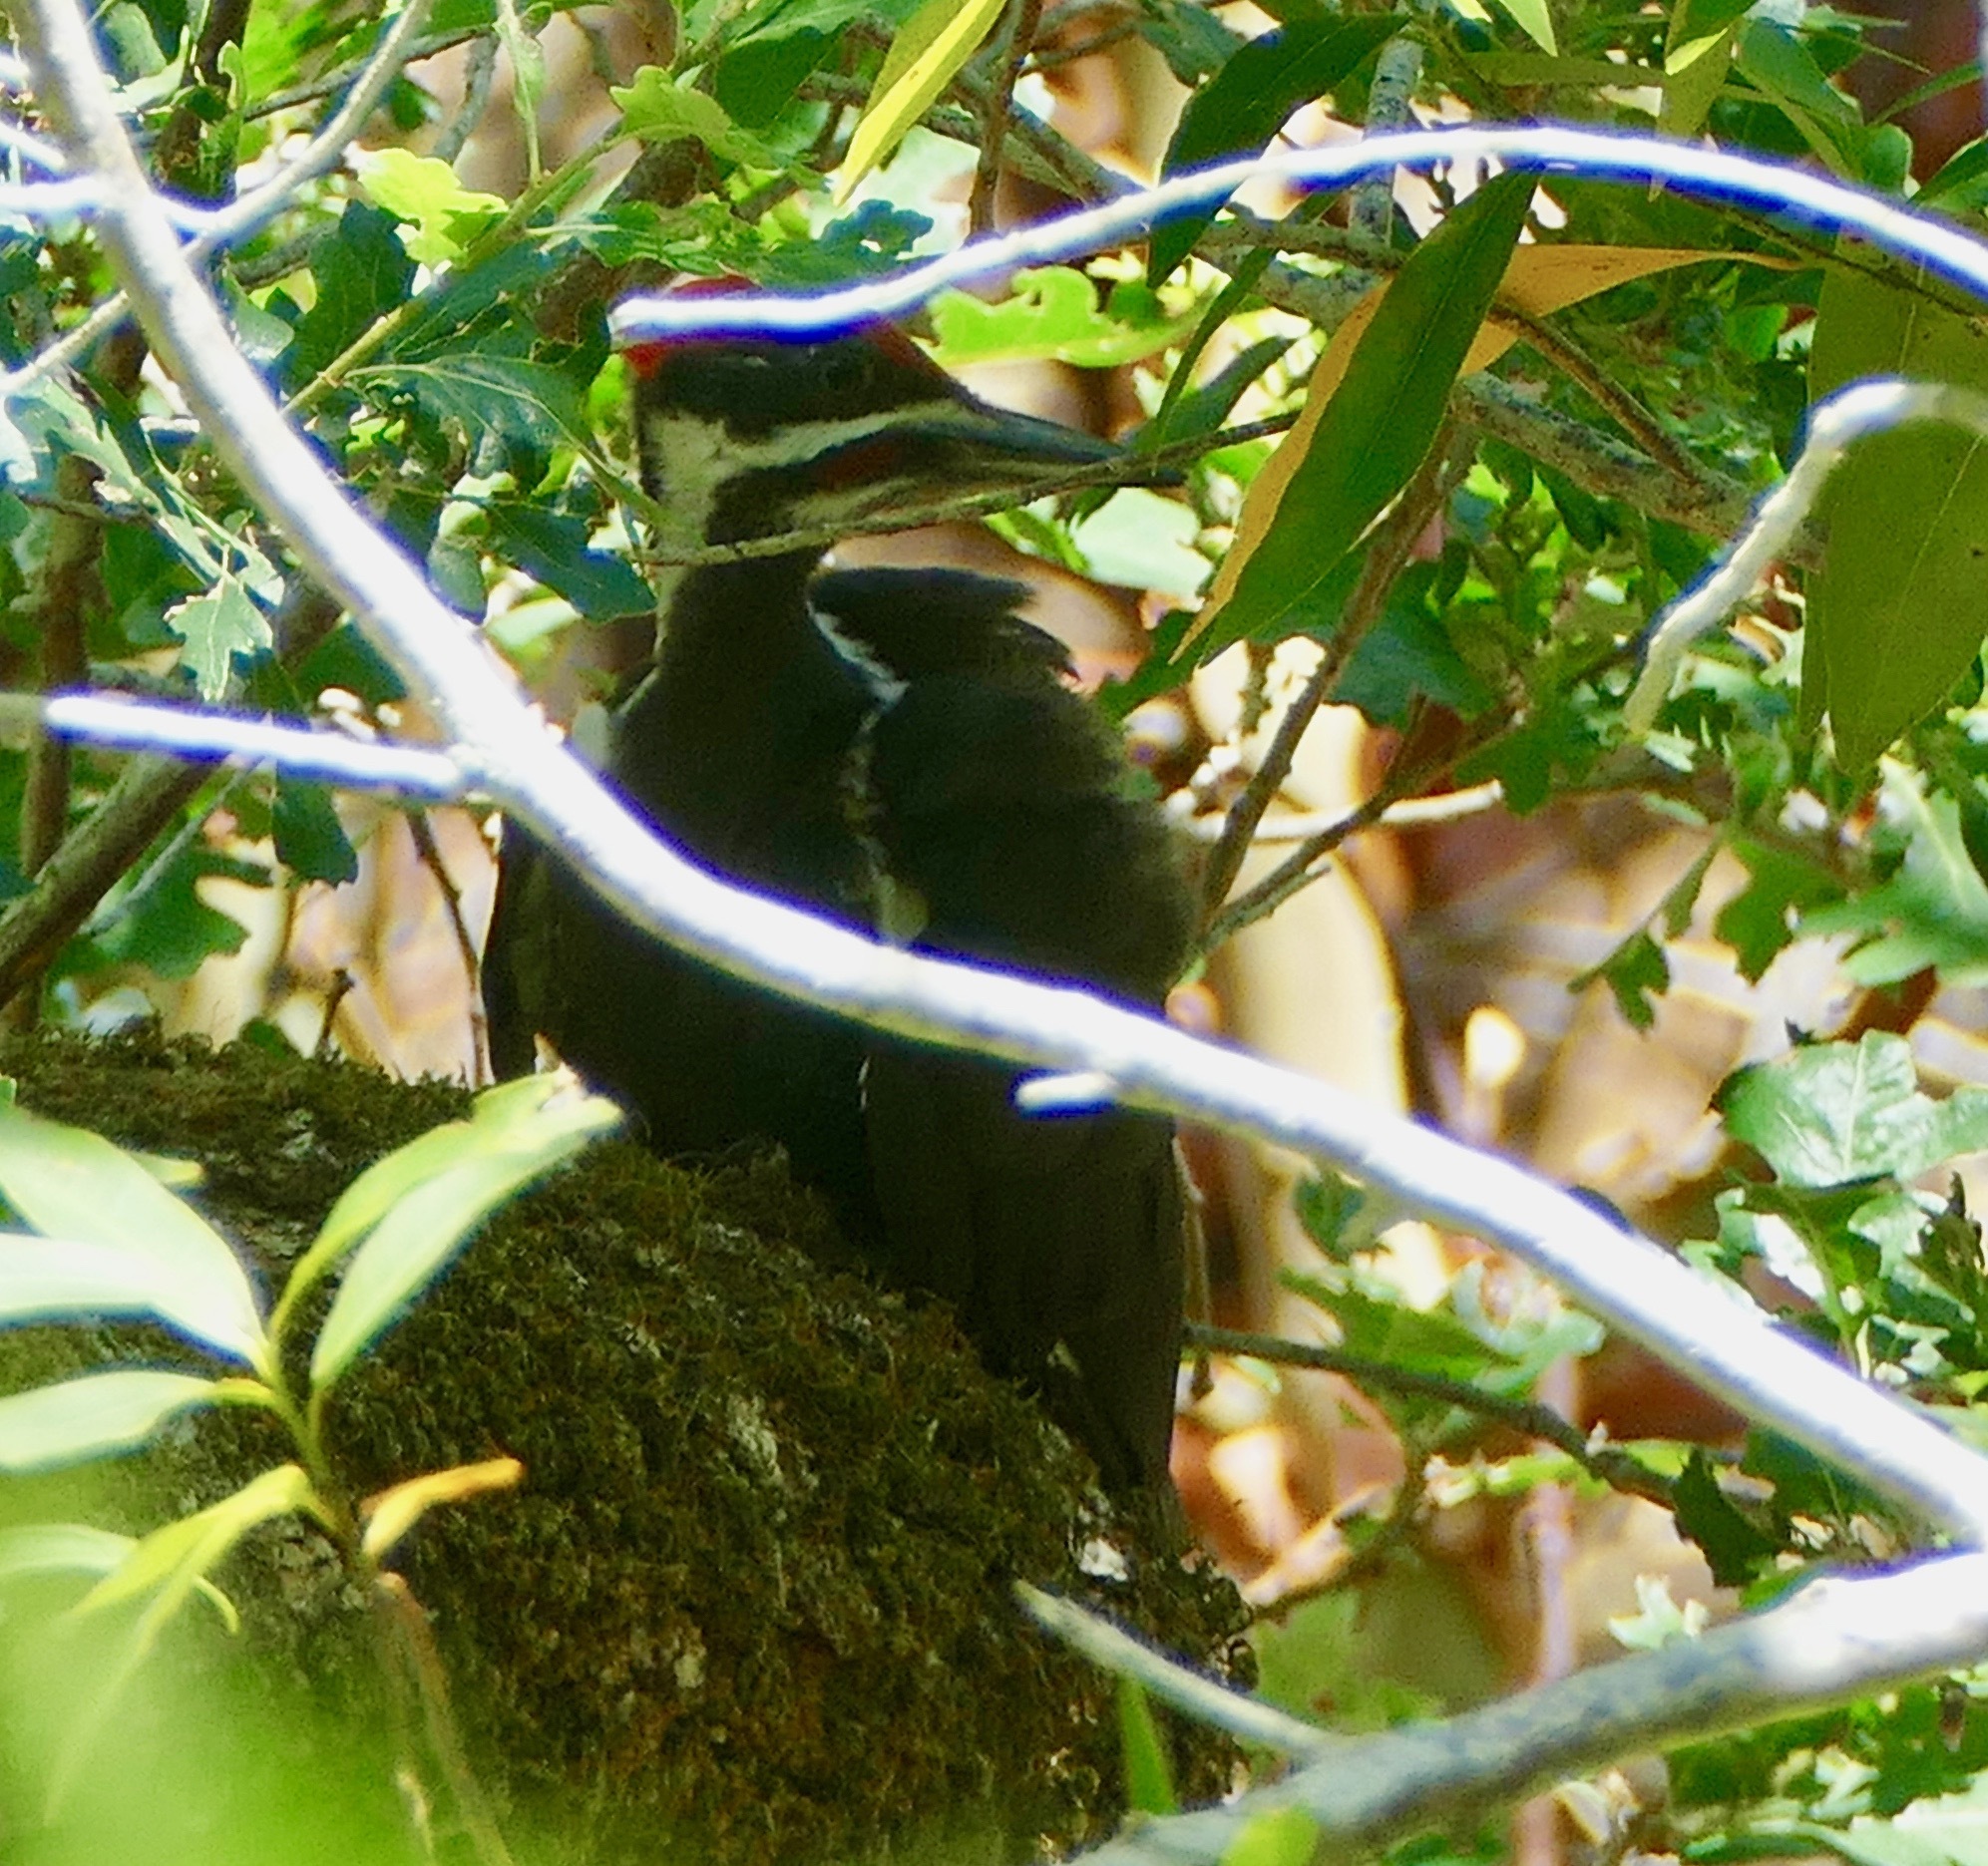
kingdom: Animalia
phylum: Chordata
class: Aves
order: Piciformes
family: Picidae
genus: Dryocopus
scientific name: Dryocopus pileatus
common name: Pileated woodpecker
